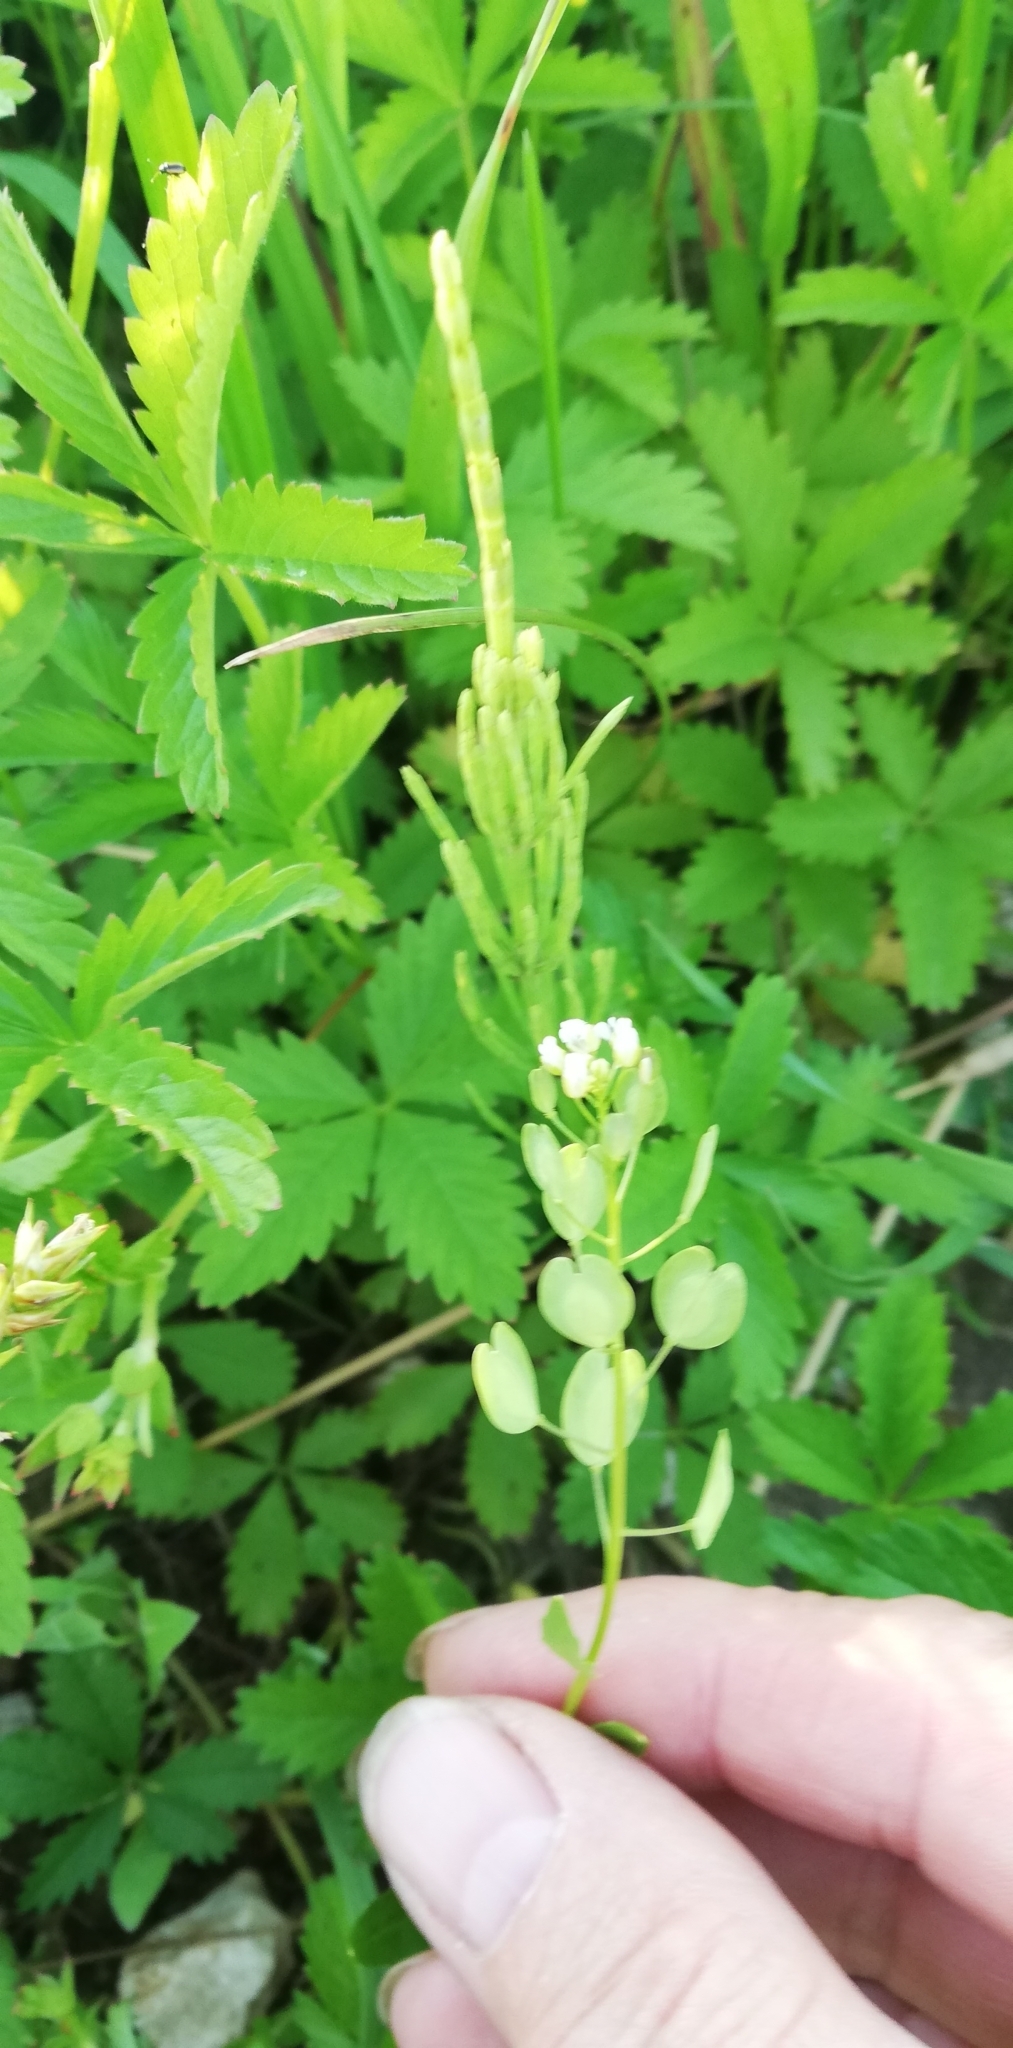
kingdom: Plantae
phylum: Tracheophyta
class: Magnoliopsida
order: Brassicales
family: Brassicaceae
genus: Thlaspi
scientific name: Thlaspi arvense
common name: Field pennycress
